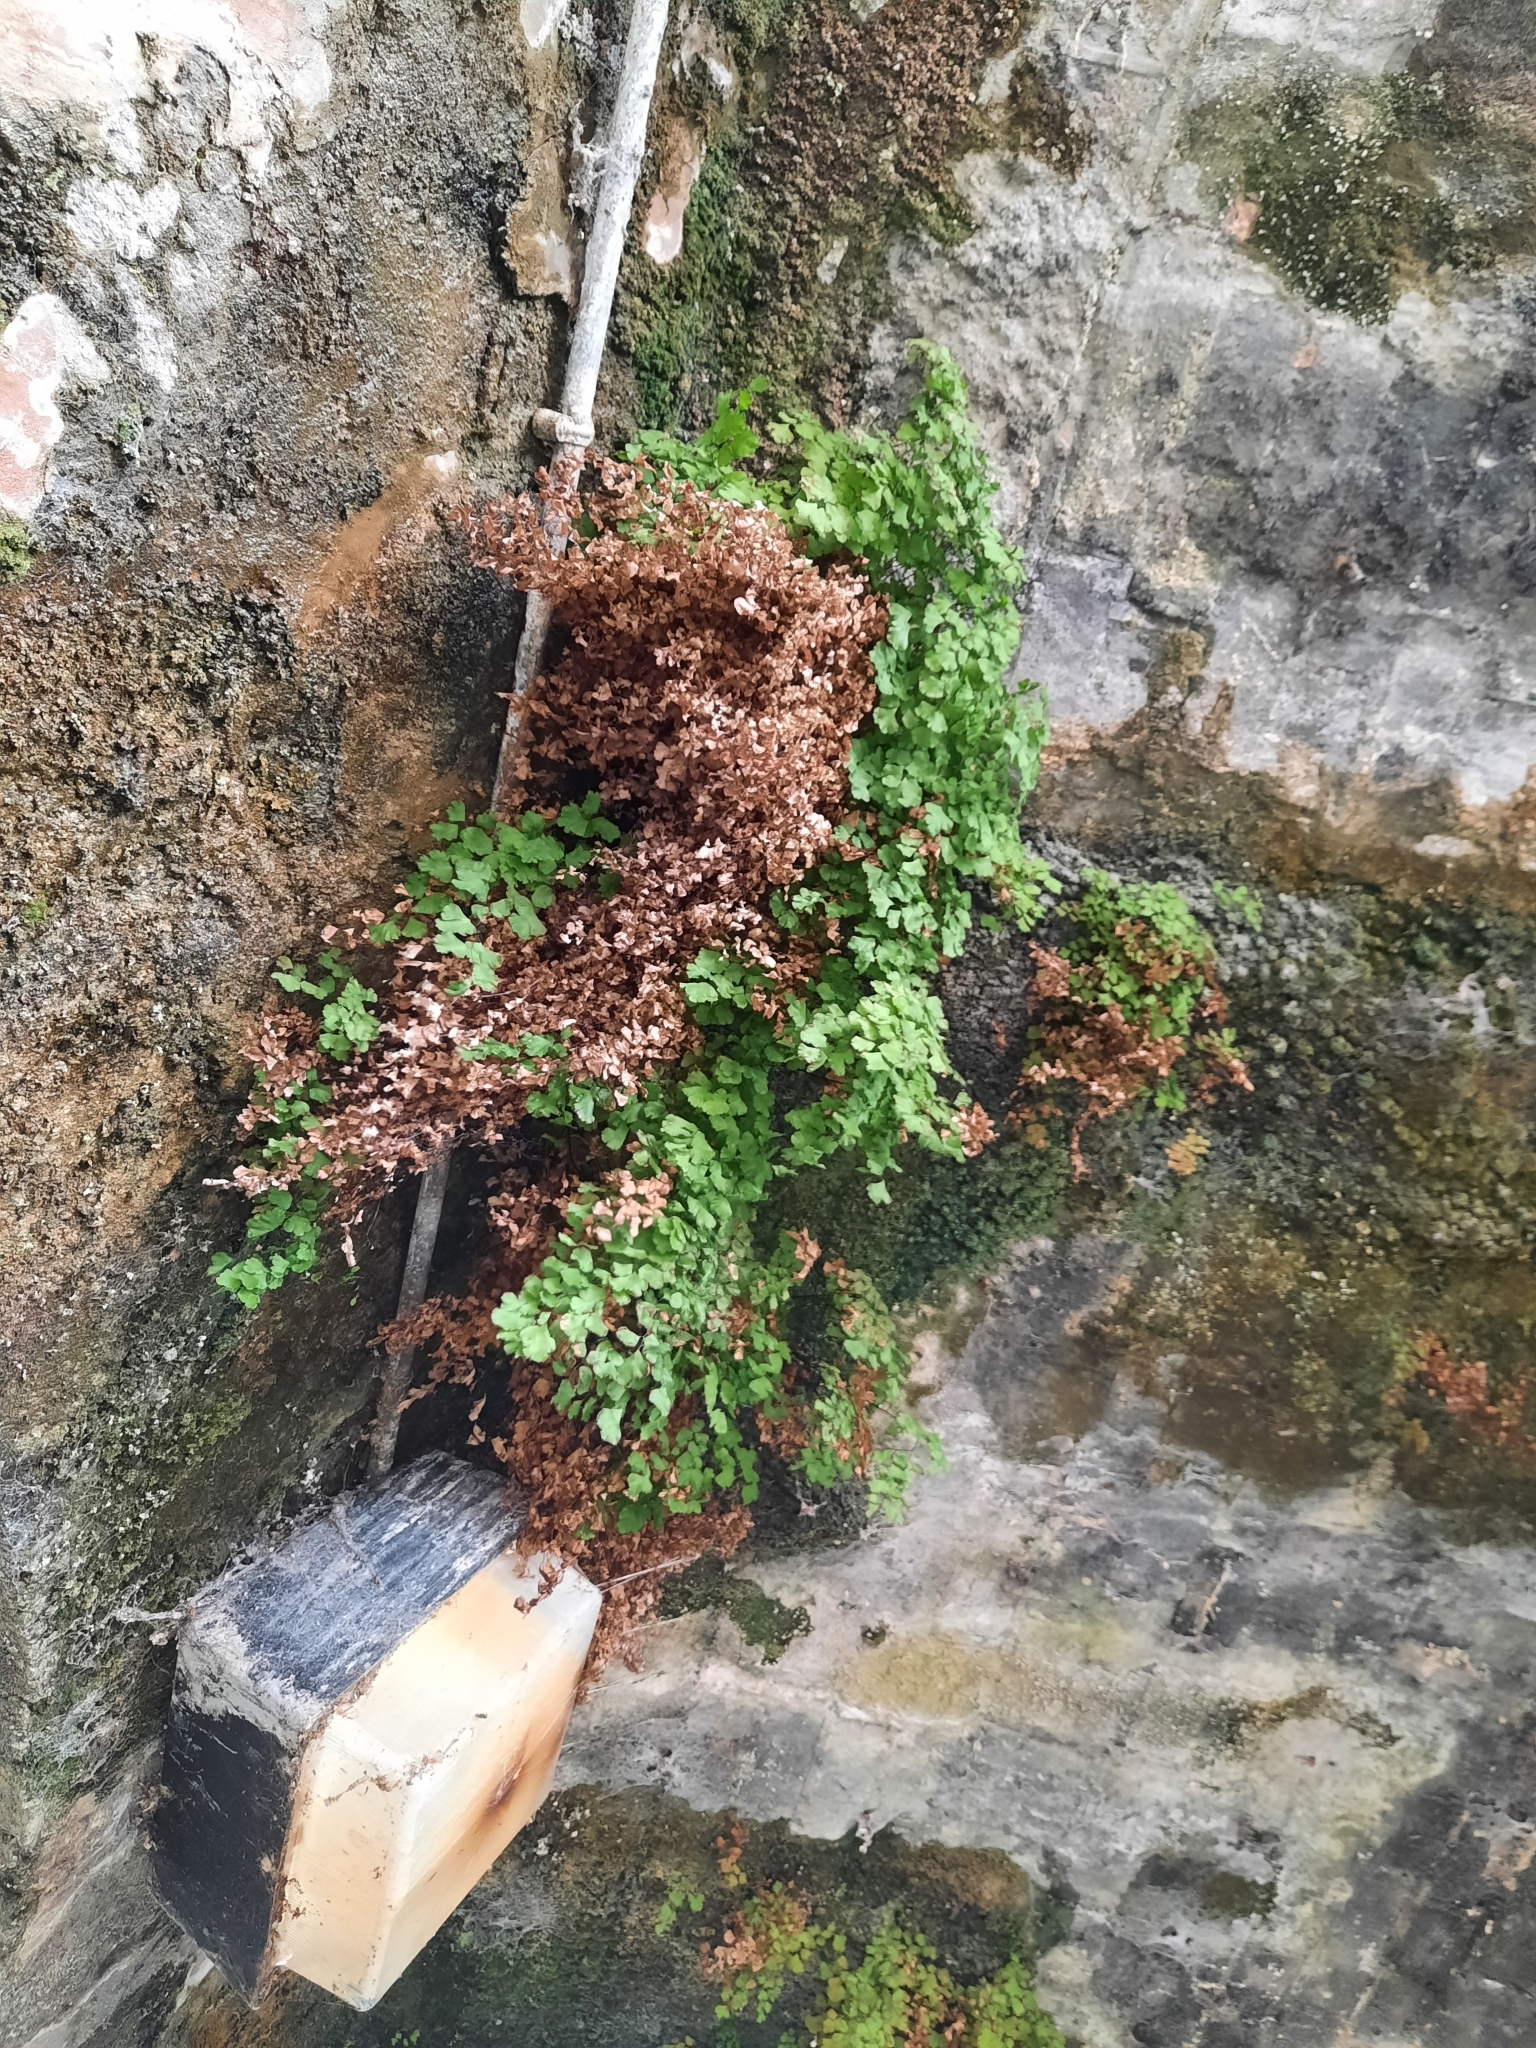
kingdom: Plantae
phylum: Tracheophyta
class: Polypodiopsida
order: Polypodiales
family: Pteridaceae
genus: Adiantum
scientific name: Adiantum capillus-veneris
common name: Maidenhair fern
